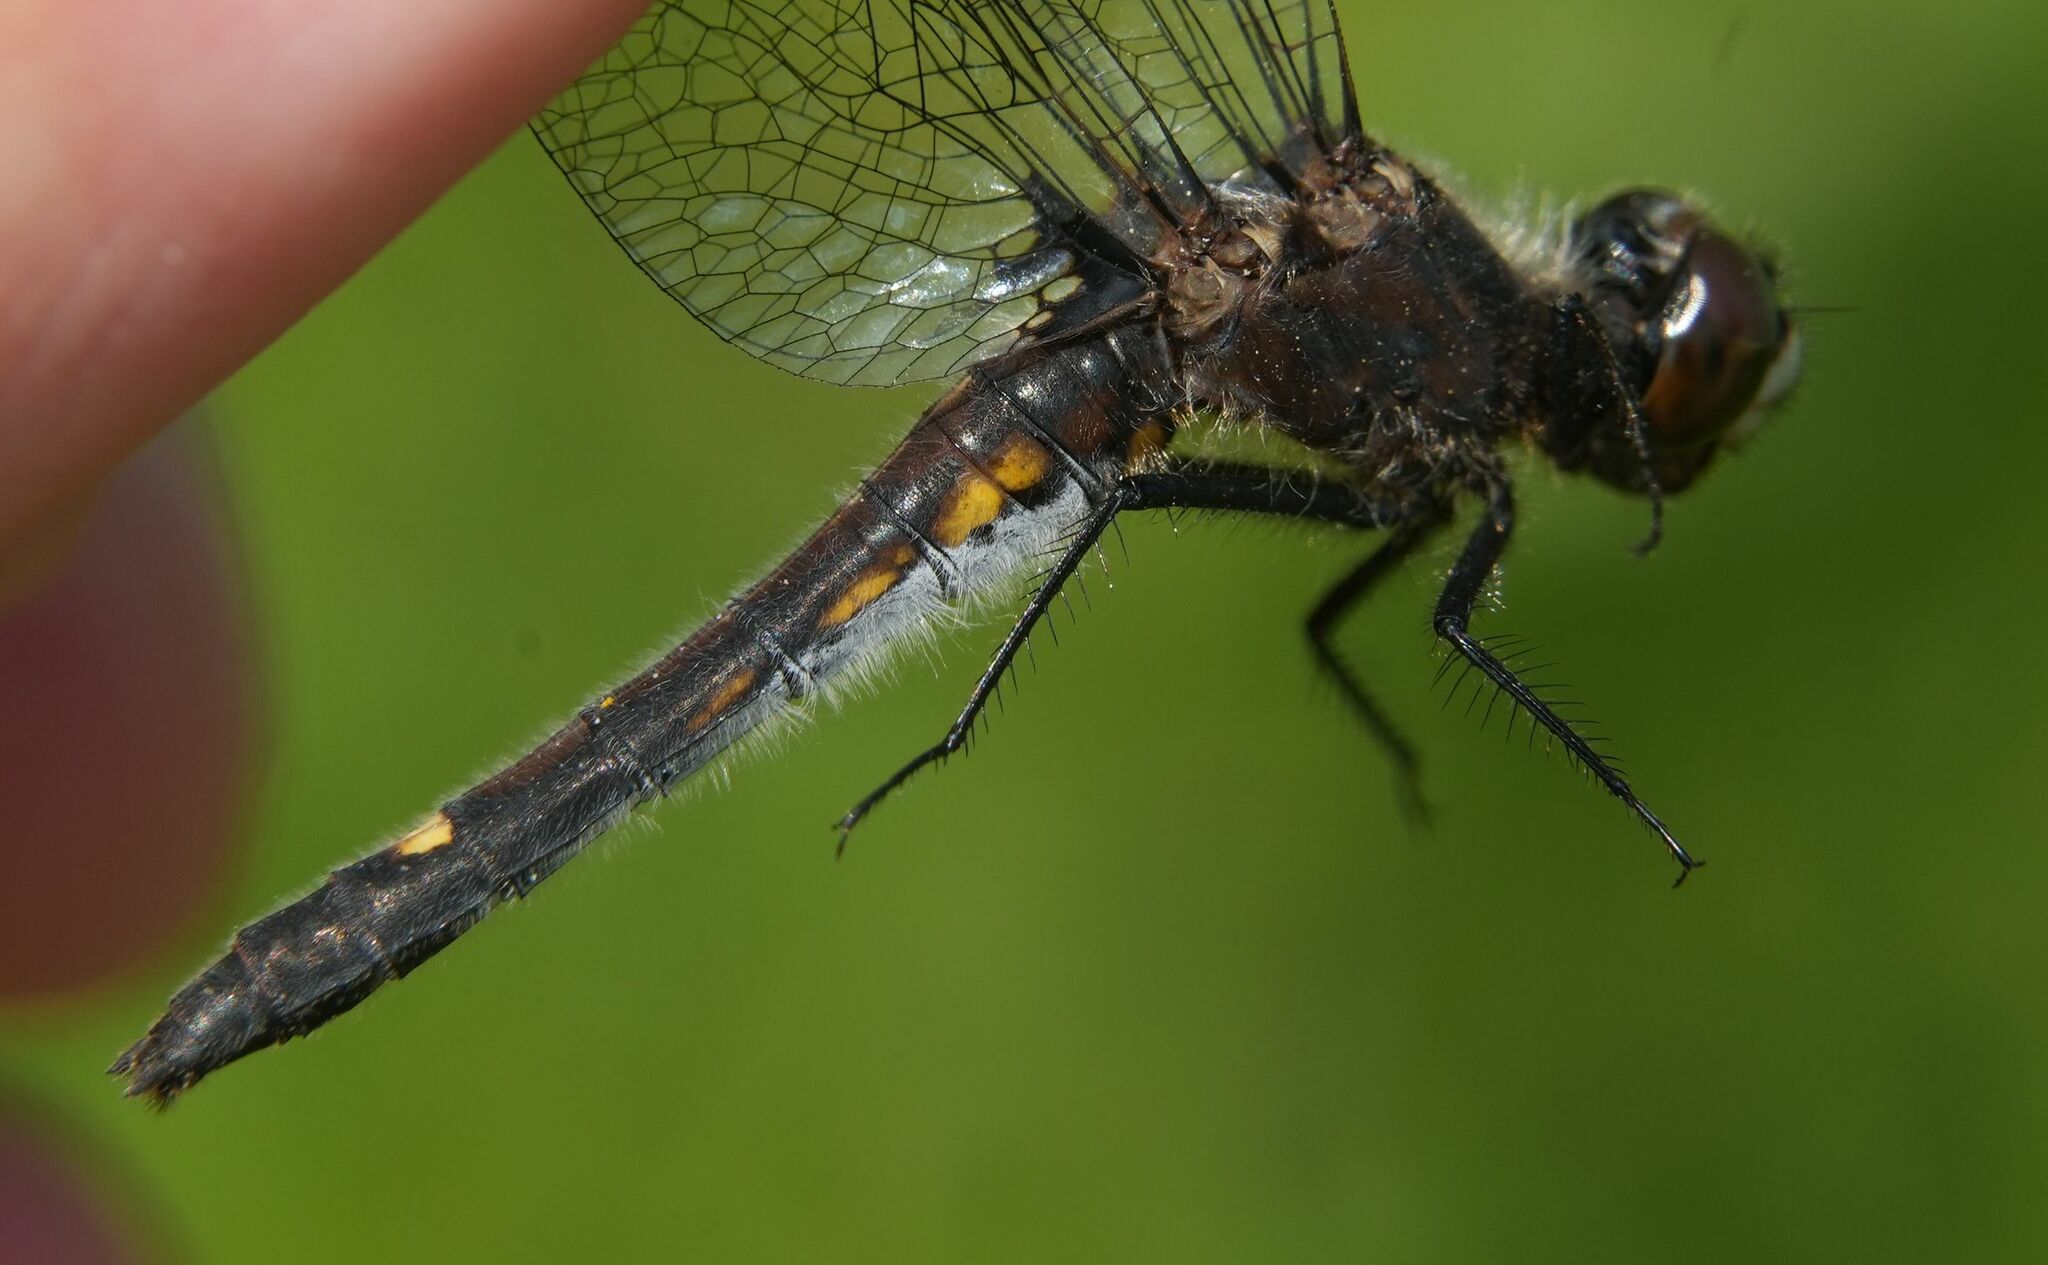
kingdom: Animalia
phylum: Arthropoda
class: Insecta
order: Odonata
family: Libellulidae
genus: Leucorrhinia
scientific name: Leucorrhinia intacta
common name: Dot-tailed whiteface
